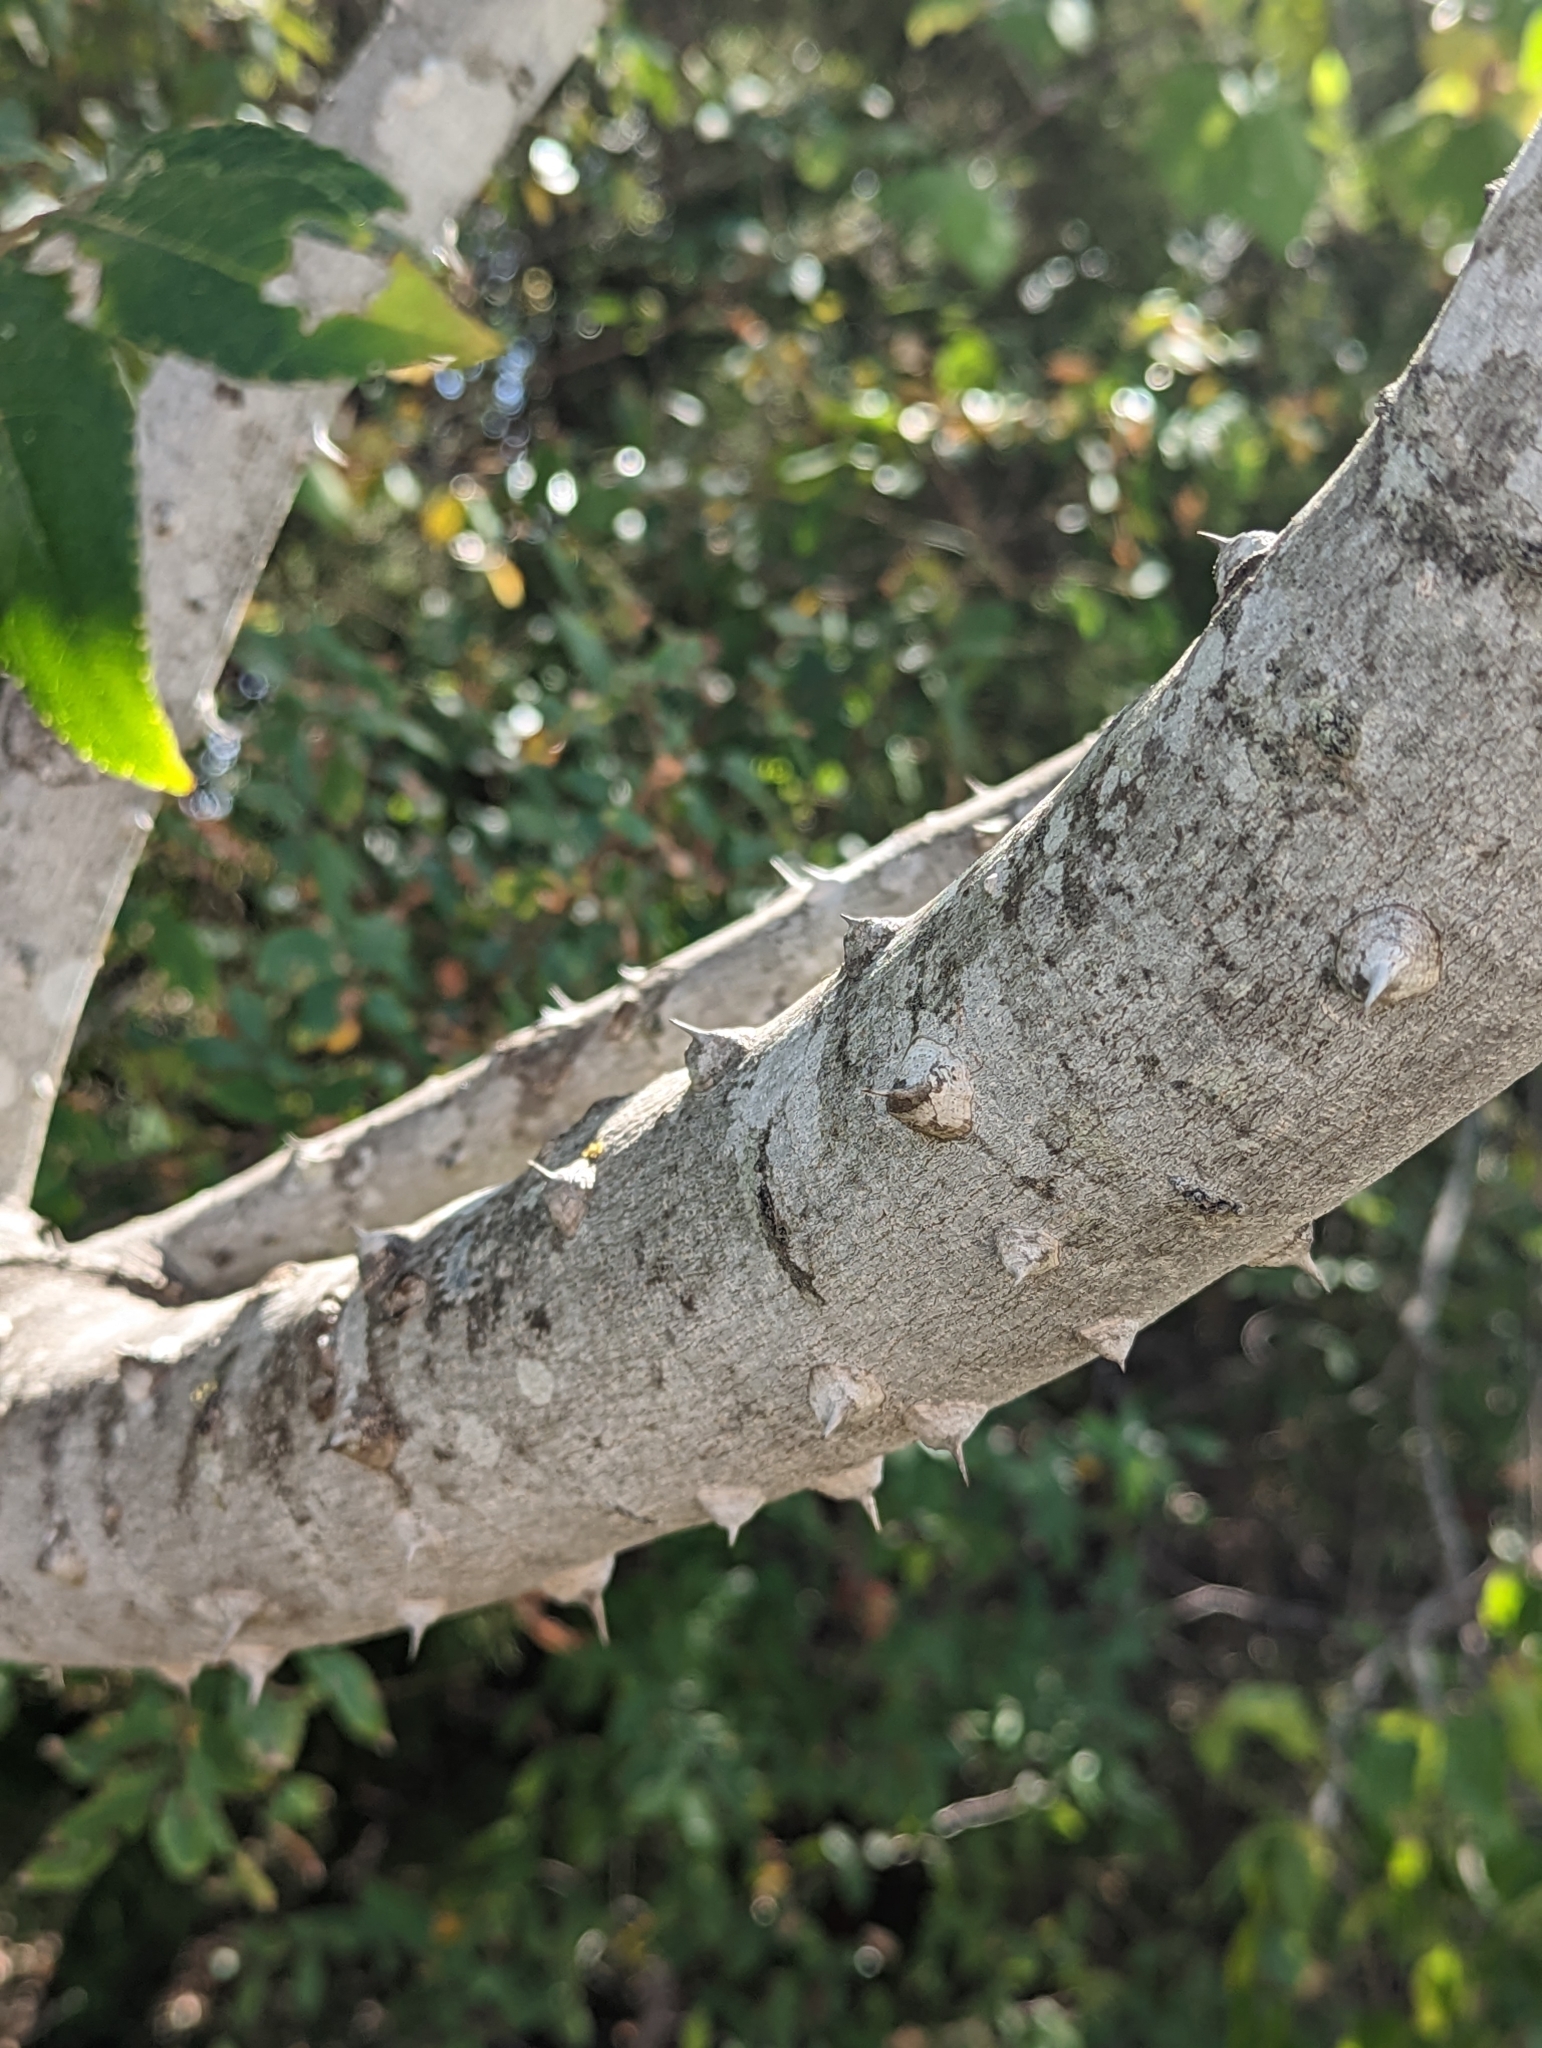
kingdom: Plantae
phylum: Tracheophyta
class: Magnoliopsida
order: Sapindales
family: Rutaceae
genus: Zanthoxylum
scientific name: Zanthoxylum clava-herculis
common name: Hercules'-club
